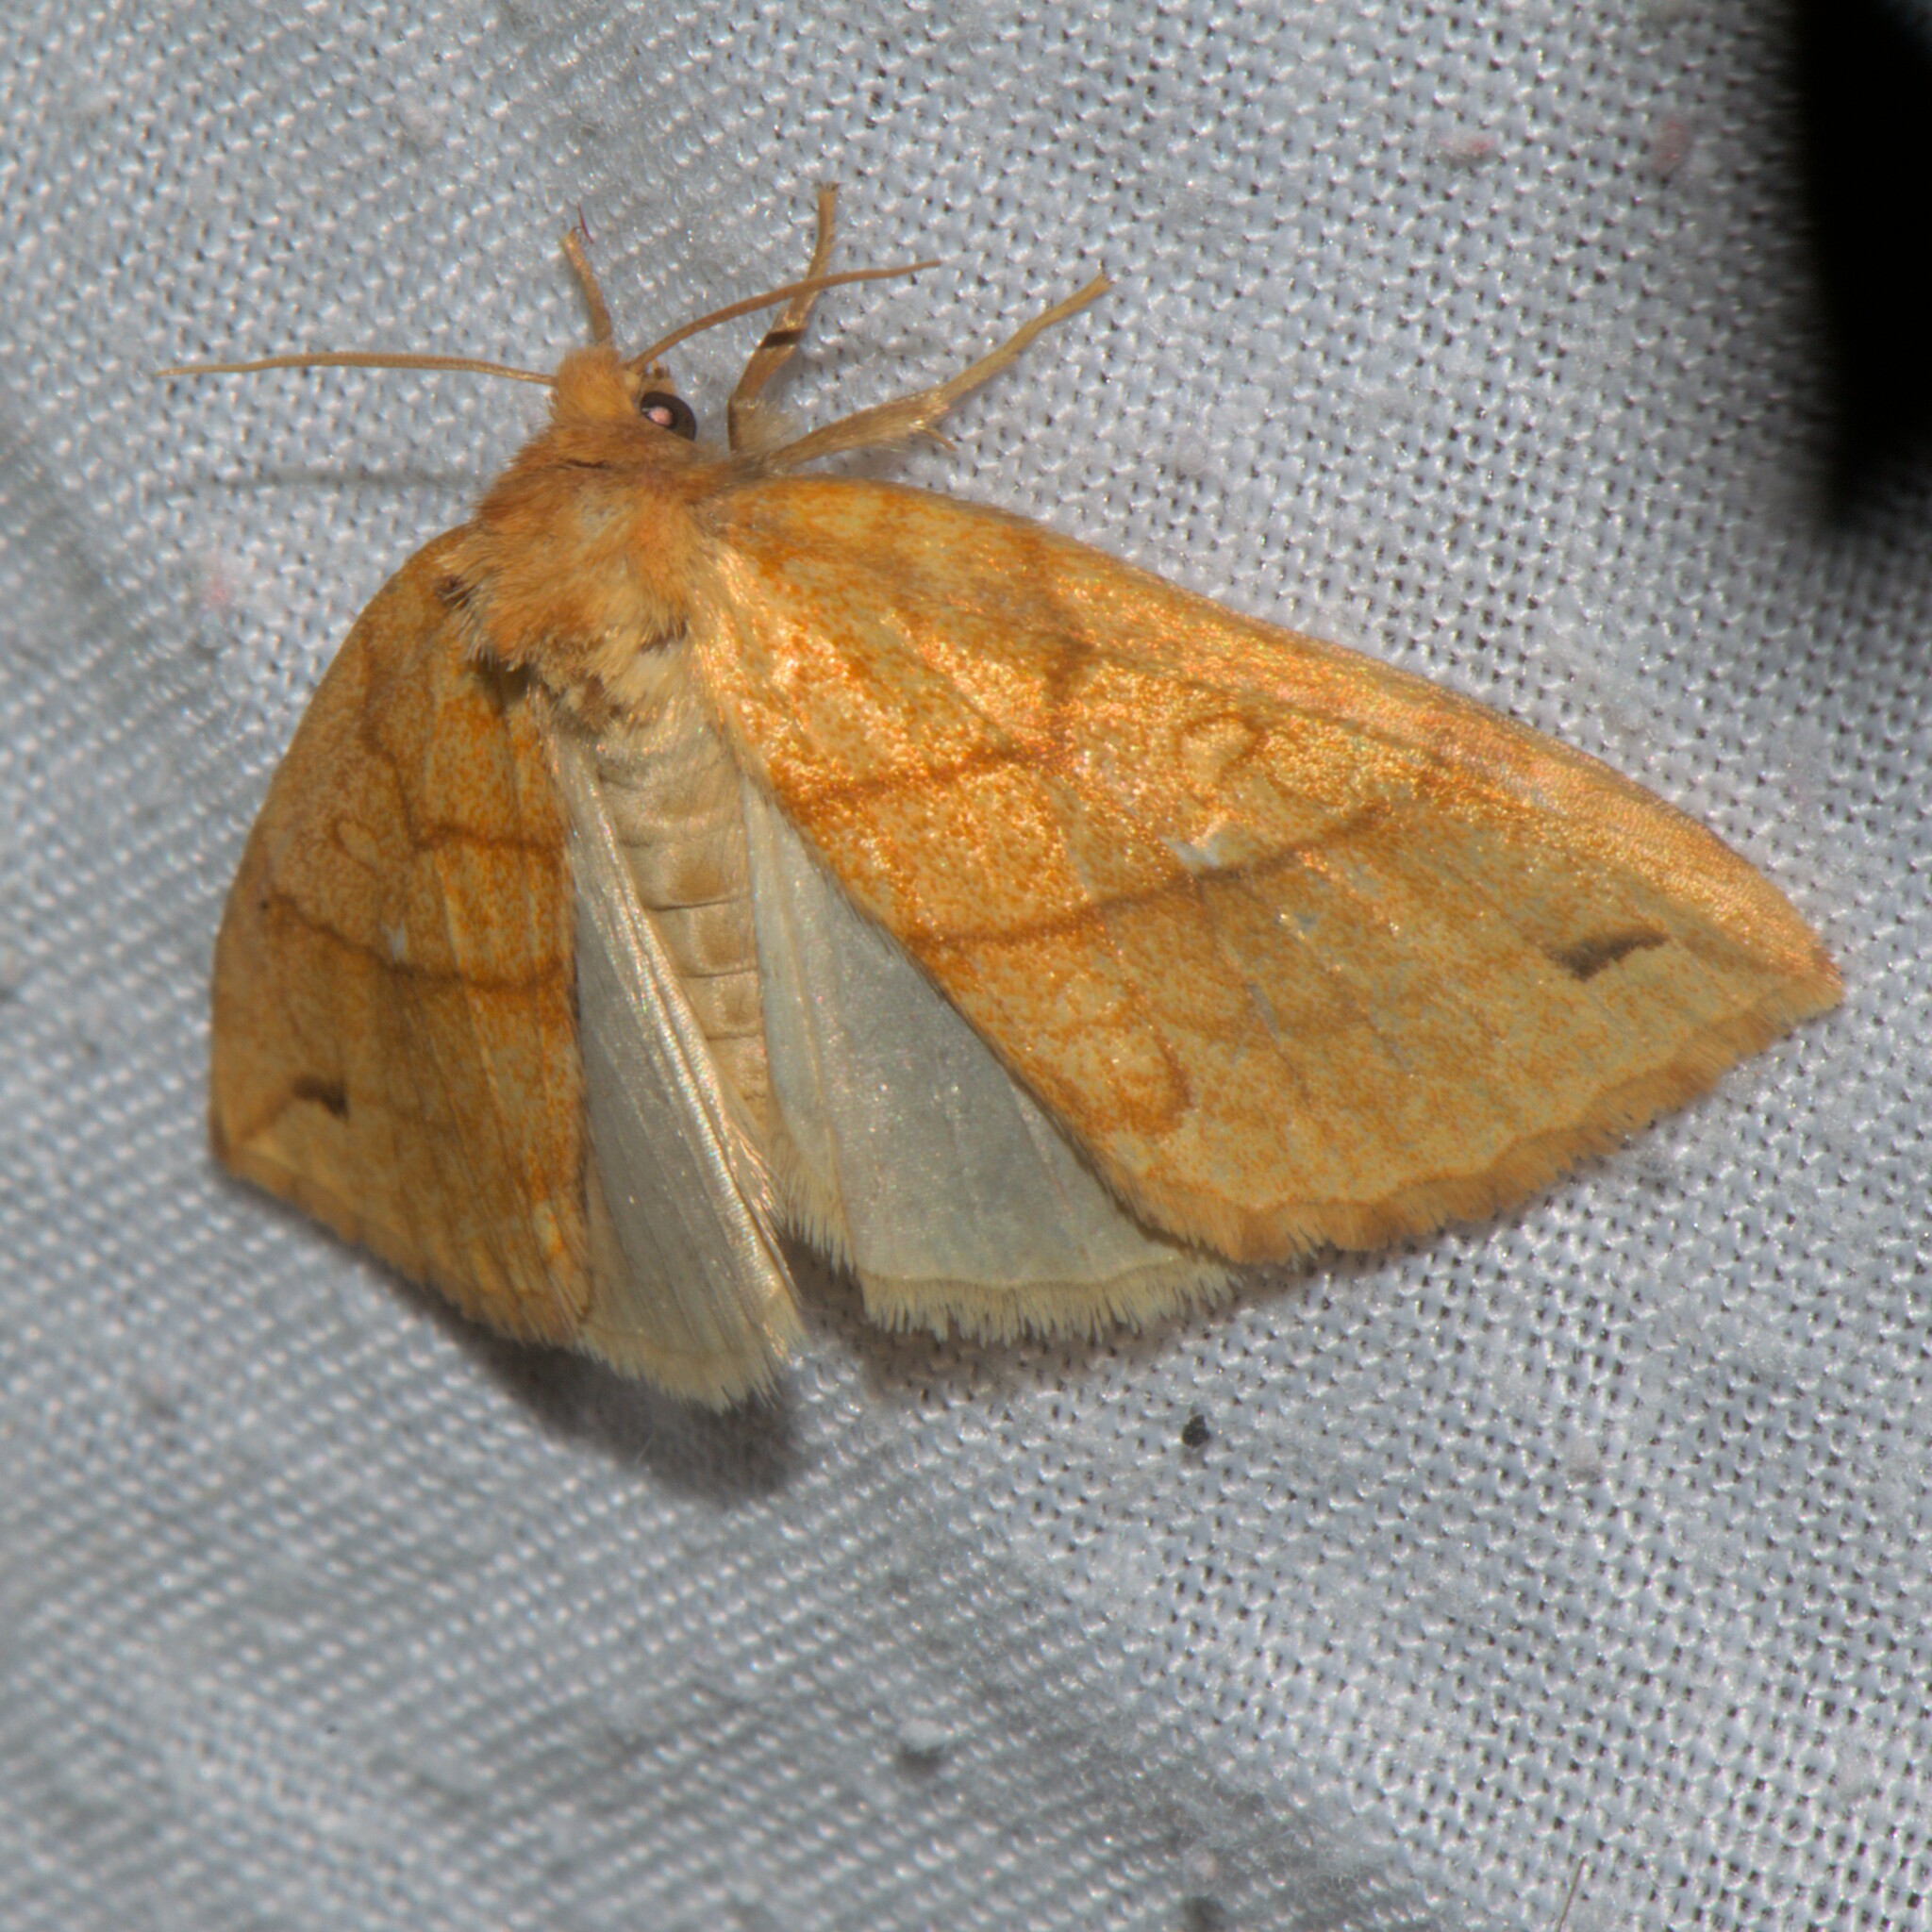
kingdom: Animalia
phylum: Arthropoda
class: Insecta
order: Lepidoptera
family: Noctuidae
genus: Xanthia
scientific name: Xanthia rectilineata
